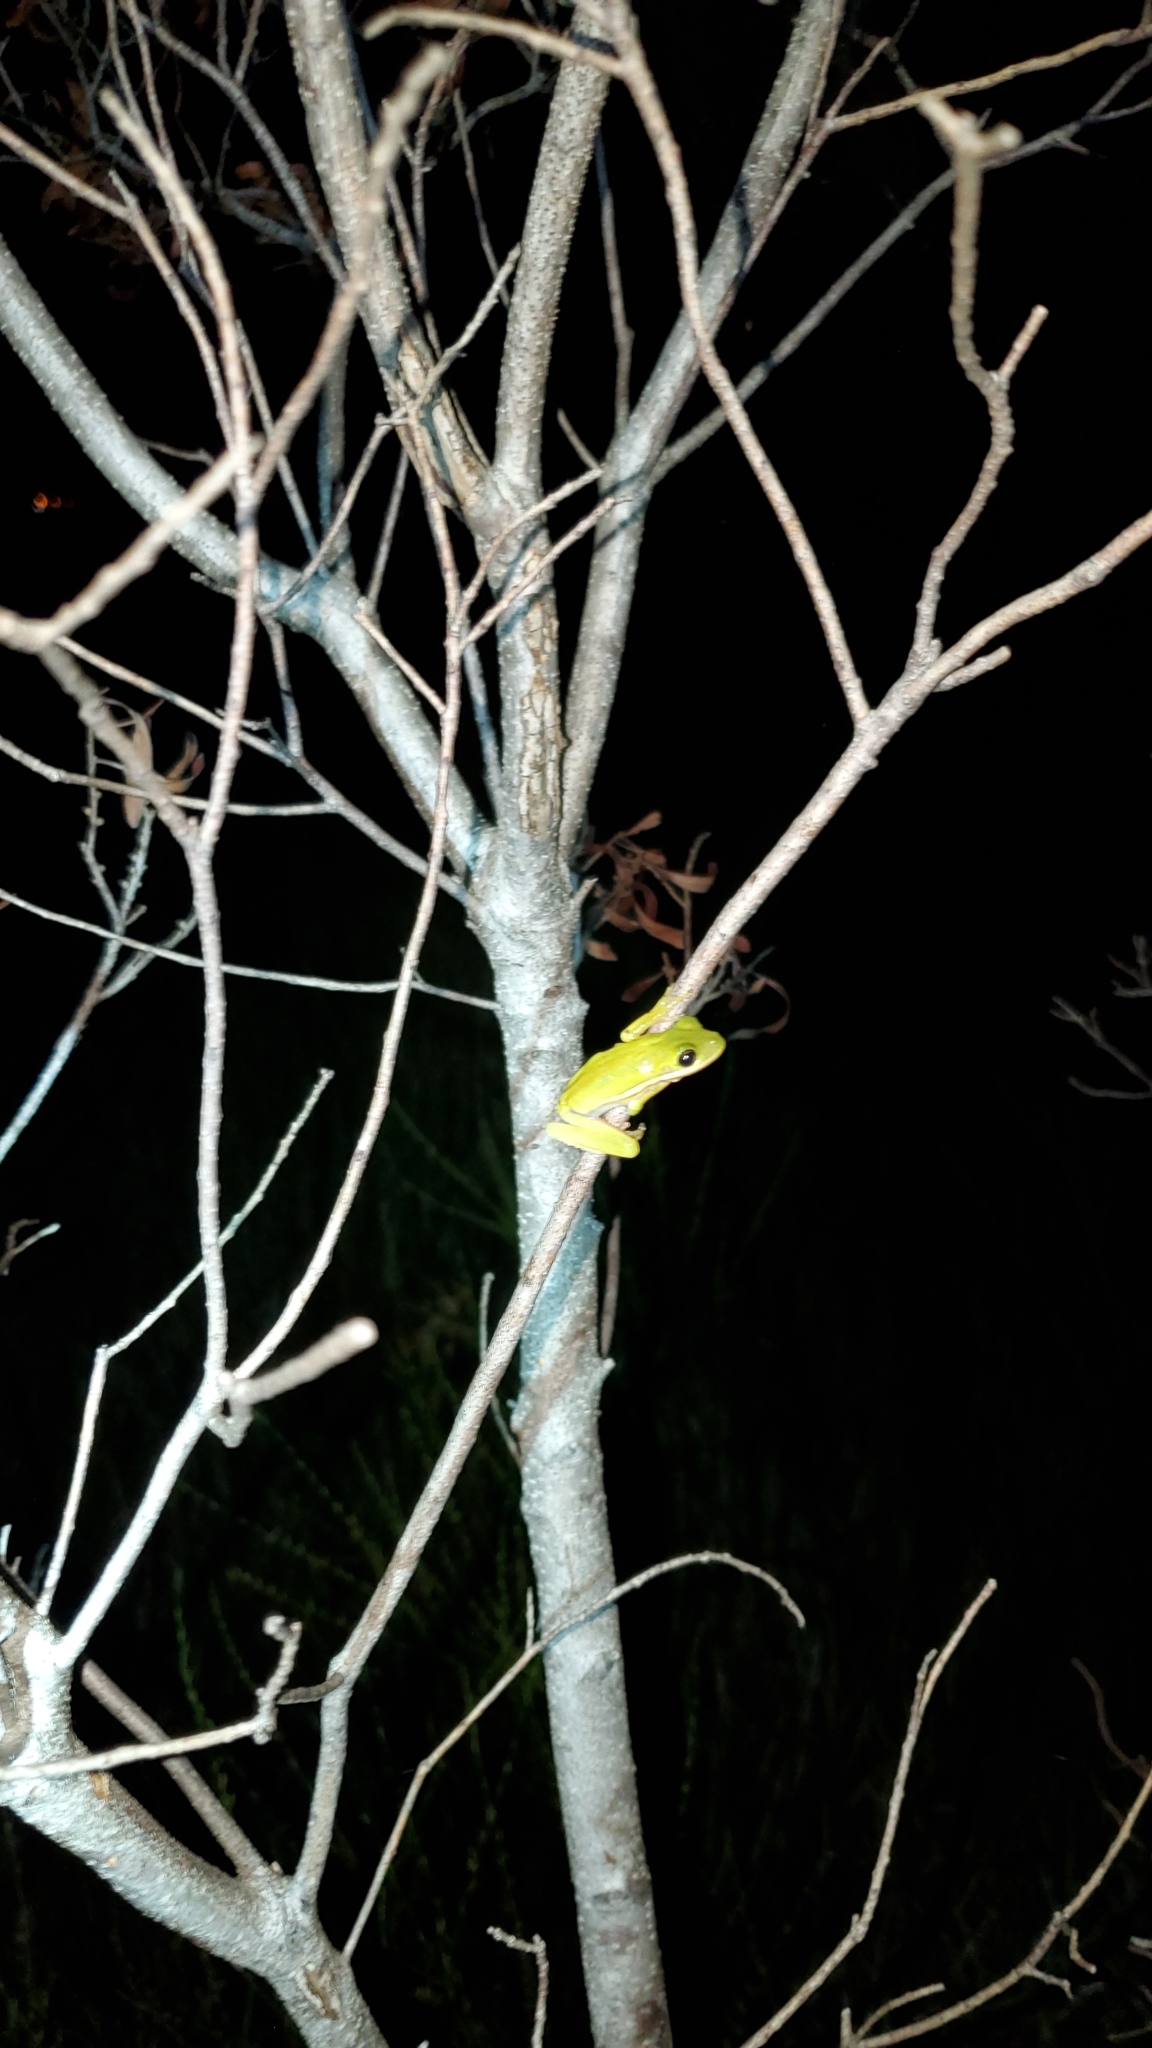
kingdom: Animalia
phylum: Chordata
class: Amphibia
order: Anura
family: Hylidae
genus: Dryophytes
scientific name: Dryophytes cinereus
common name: Green treefrog
